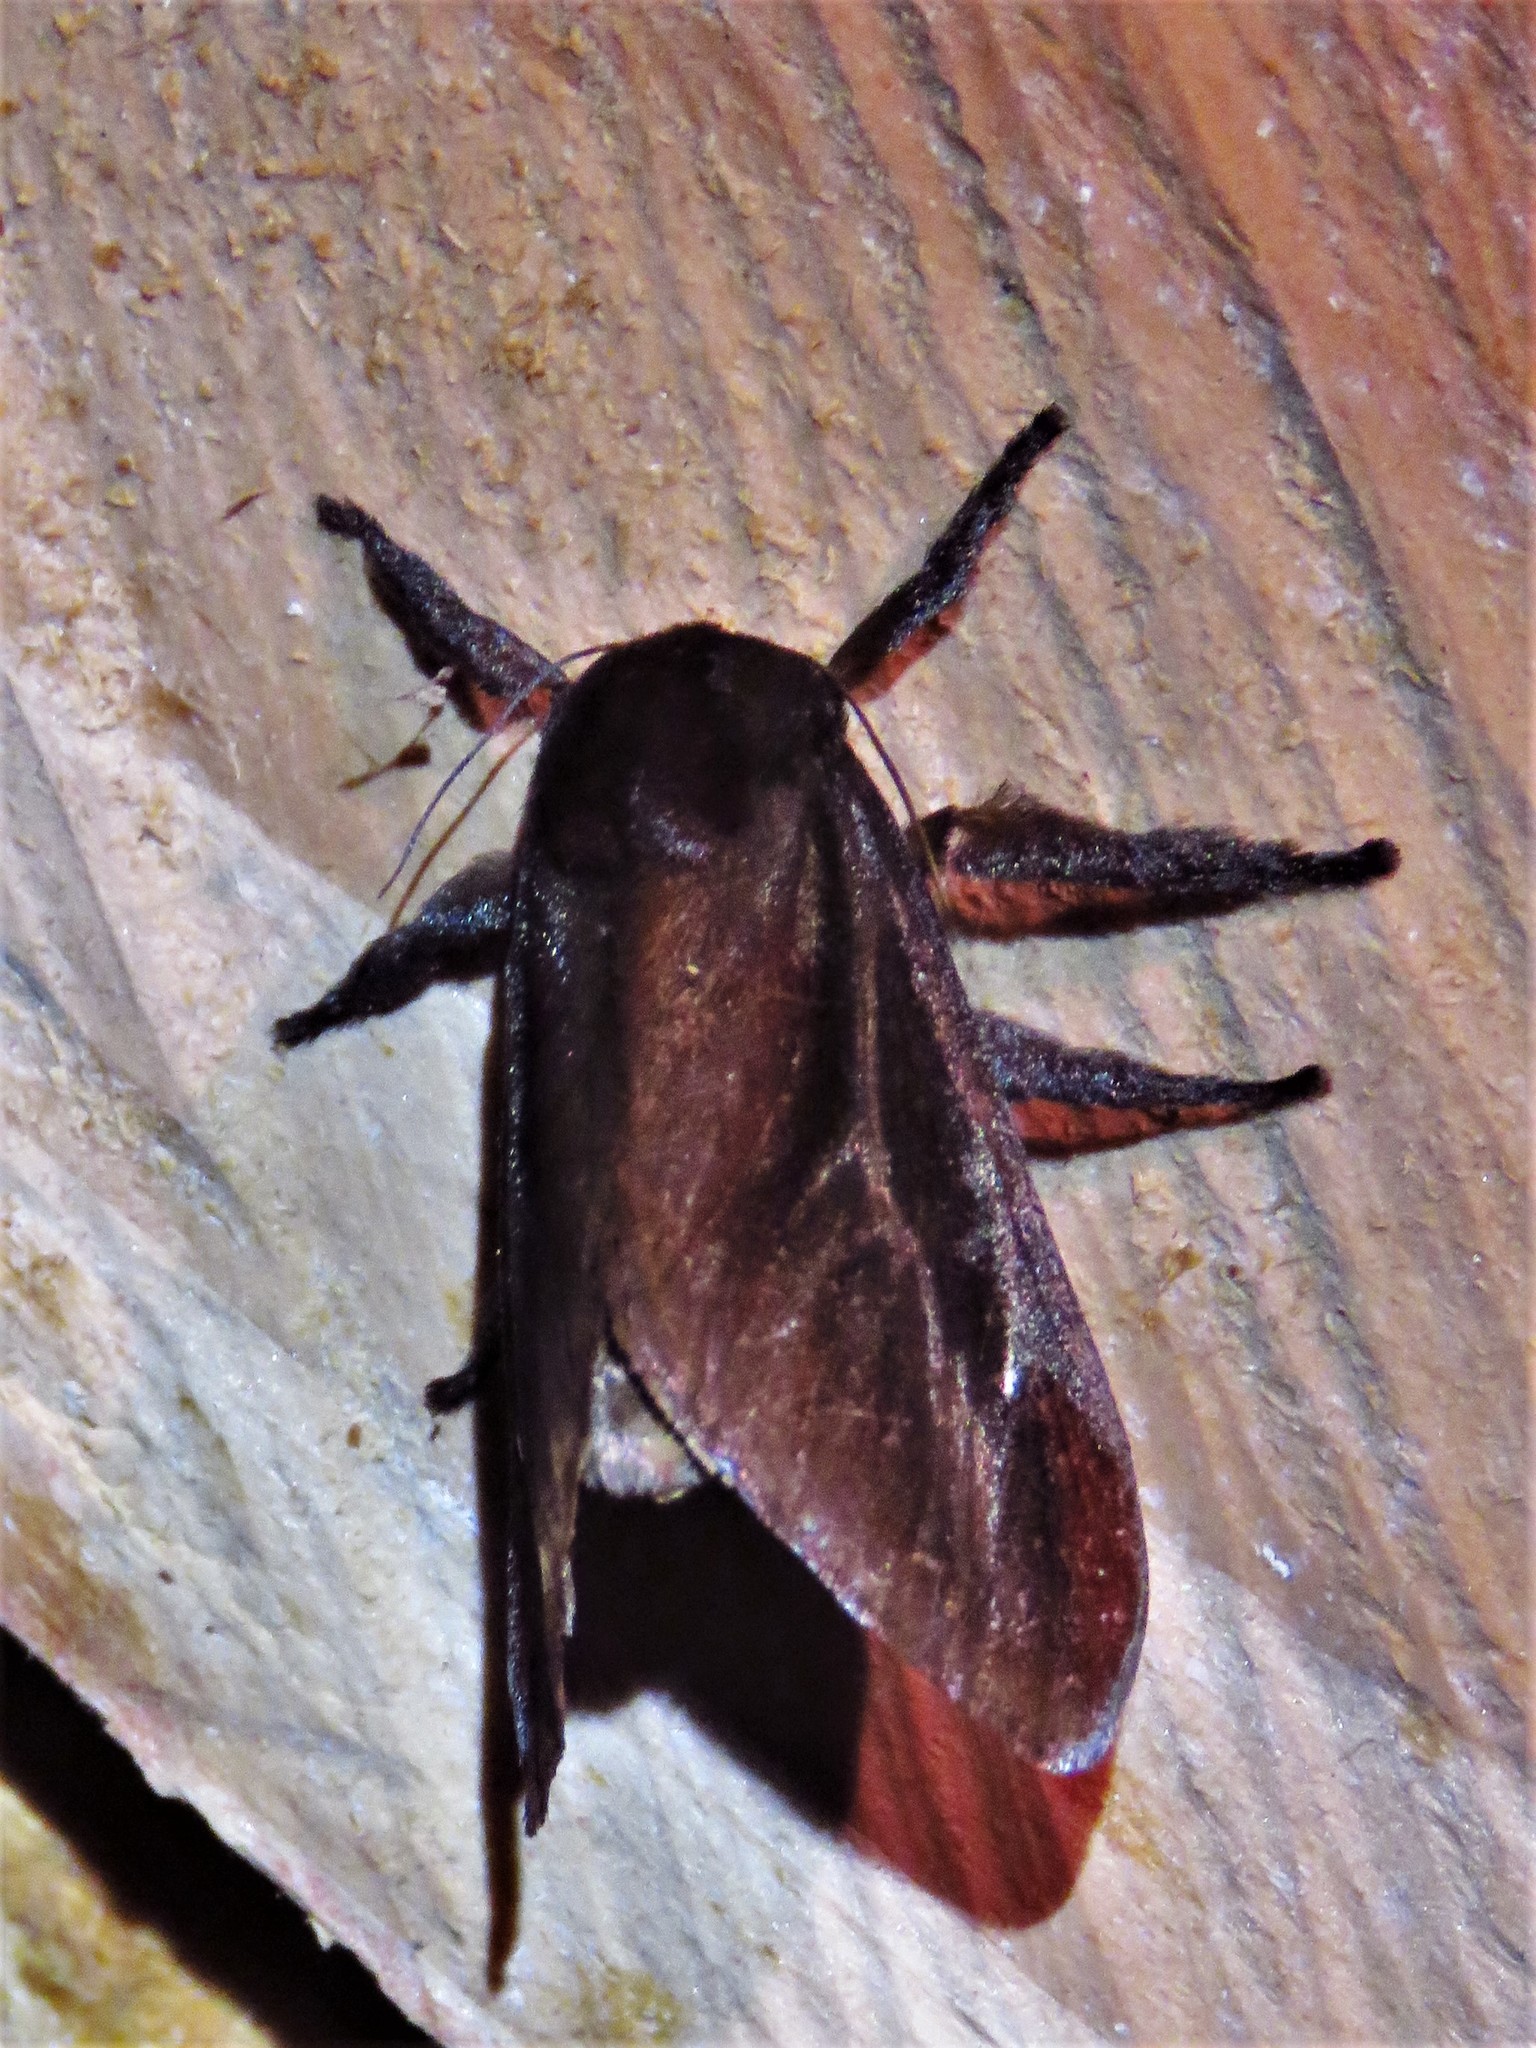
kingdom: Animalia
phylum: Arthropoda
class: Insecta
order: Lepidoptera
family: Limacodidae
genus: Acharia
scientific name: Acharia
